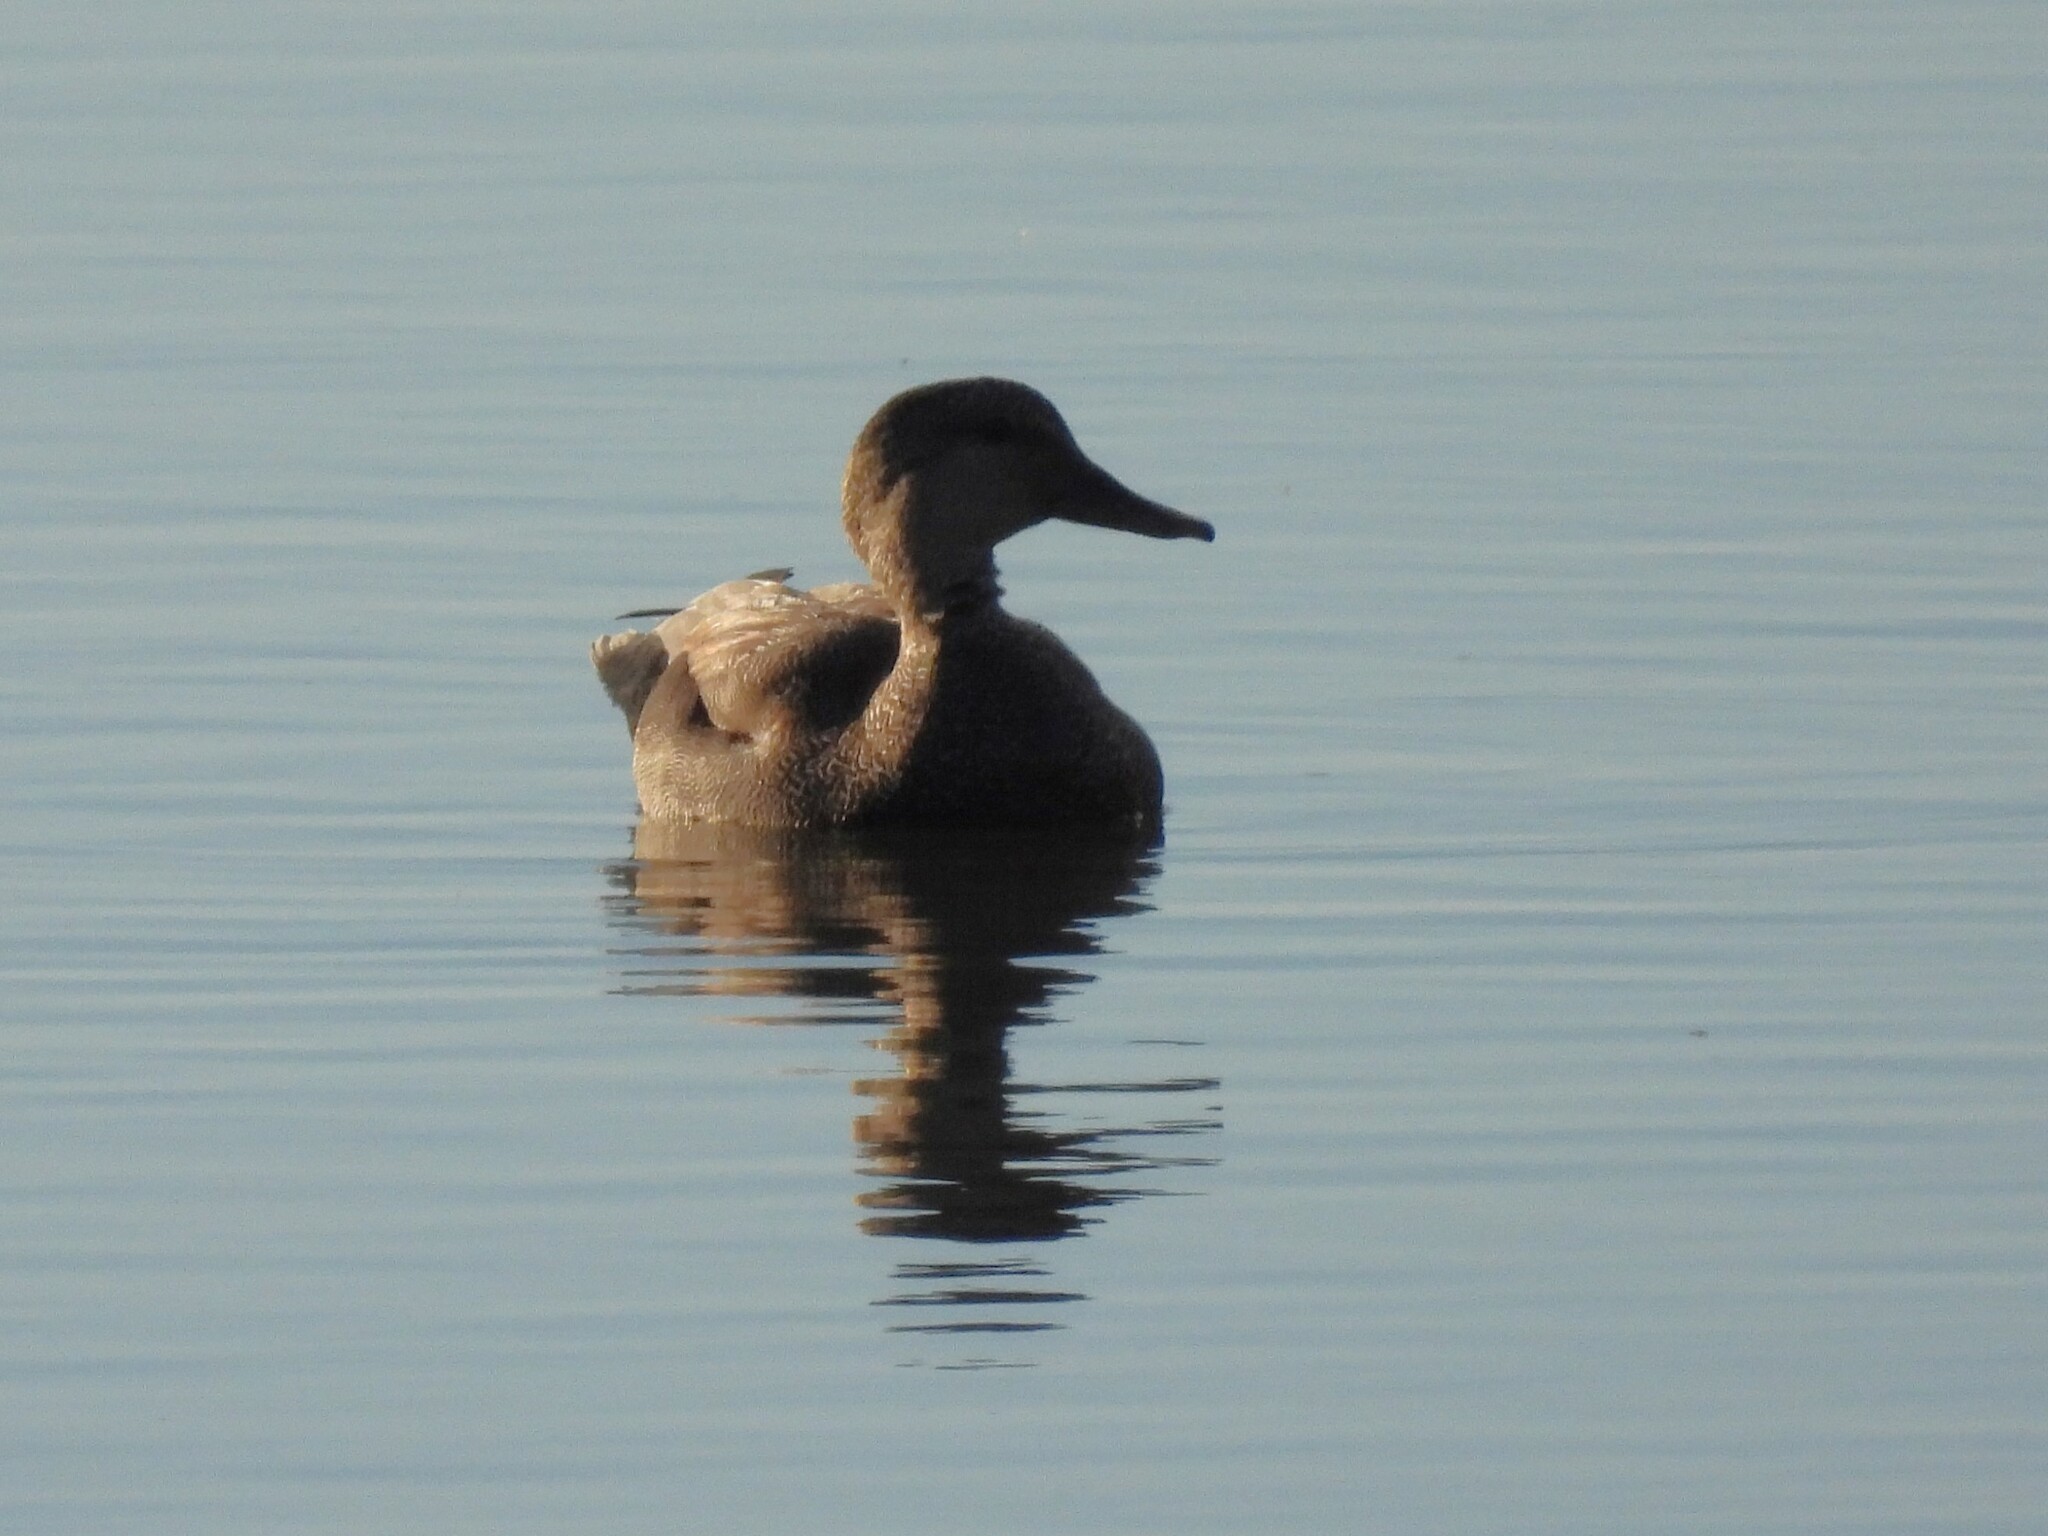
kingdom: Animalia
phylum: Chordata
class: Aves
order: Anseriformes
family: Anatidae
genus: Mareca
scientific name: Mareca strepera
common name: Gadwall
